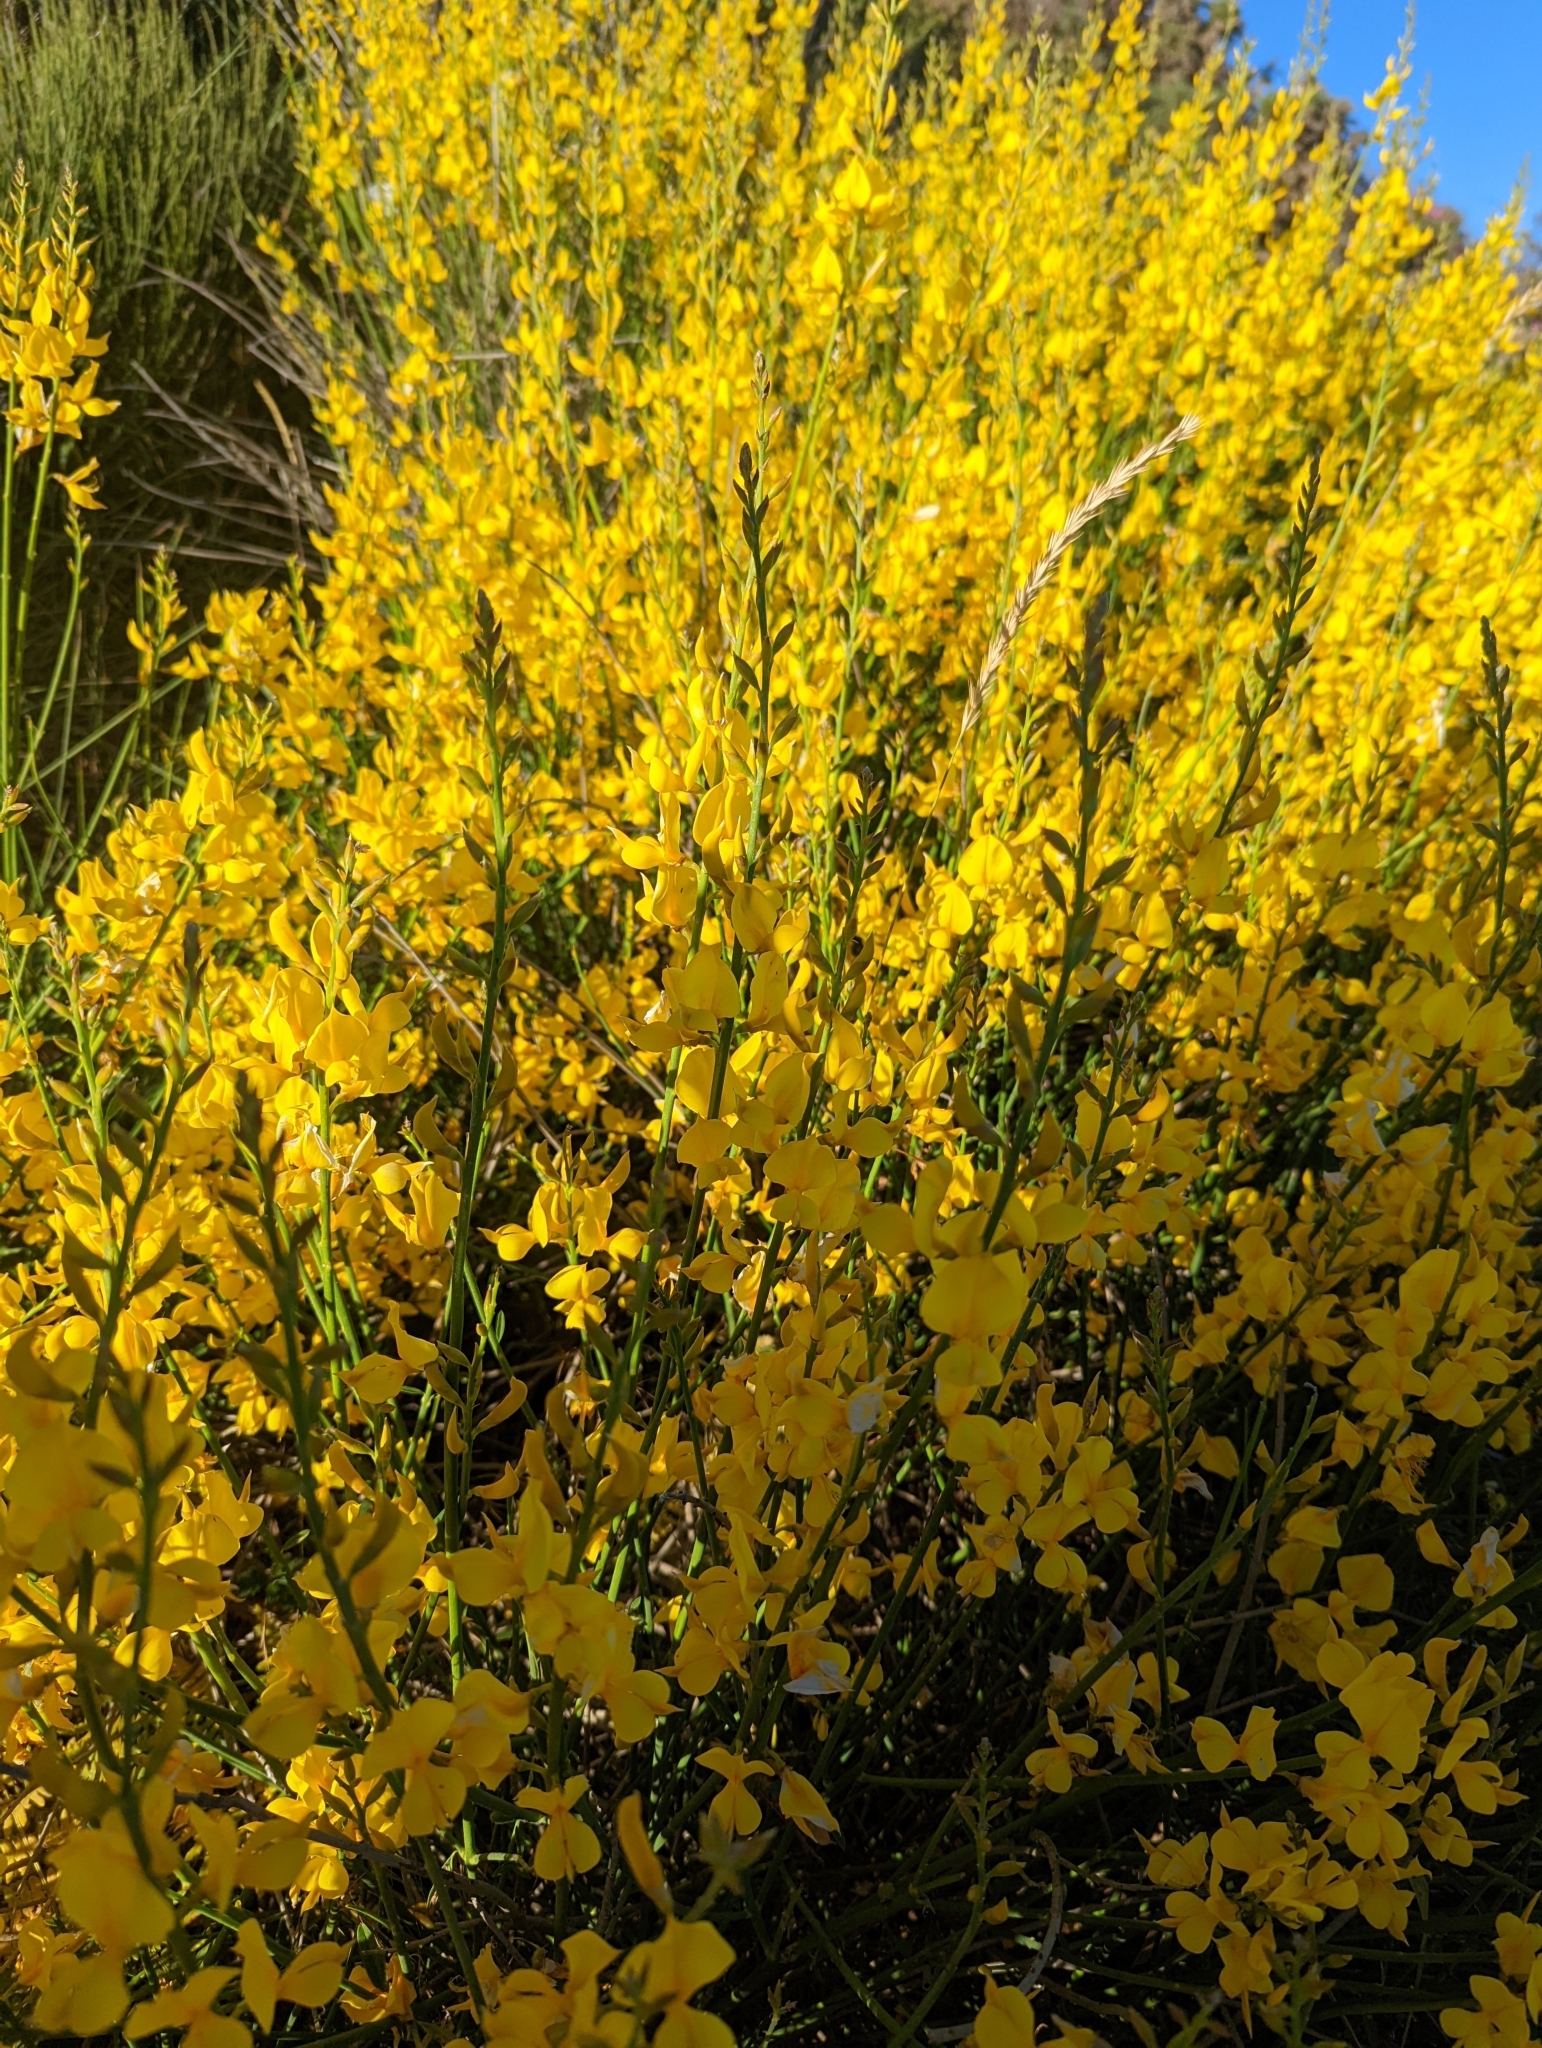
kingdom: Plantae
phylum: Tracheophyta
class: Magnoliopsida
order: Fabales
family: Fabaceae
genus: Spartium
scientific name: Spartium junceum
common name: Spanish broom
